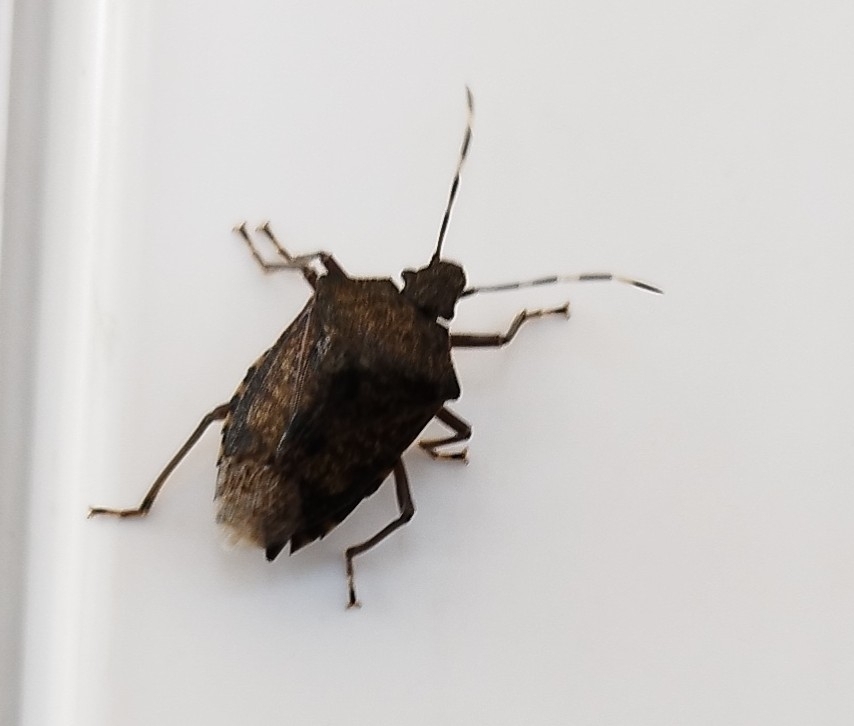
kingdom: Animalia
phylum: Arthropoda
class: Insecta
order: Hemiptera
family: Pentatomidae
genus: Rhaphigaster
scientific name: Rhaphigaster nebulosa
